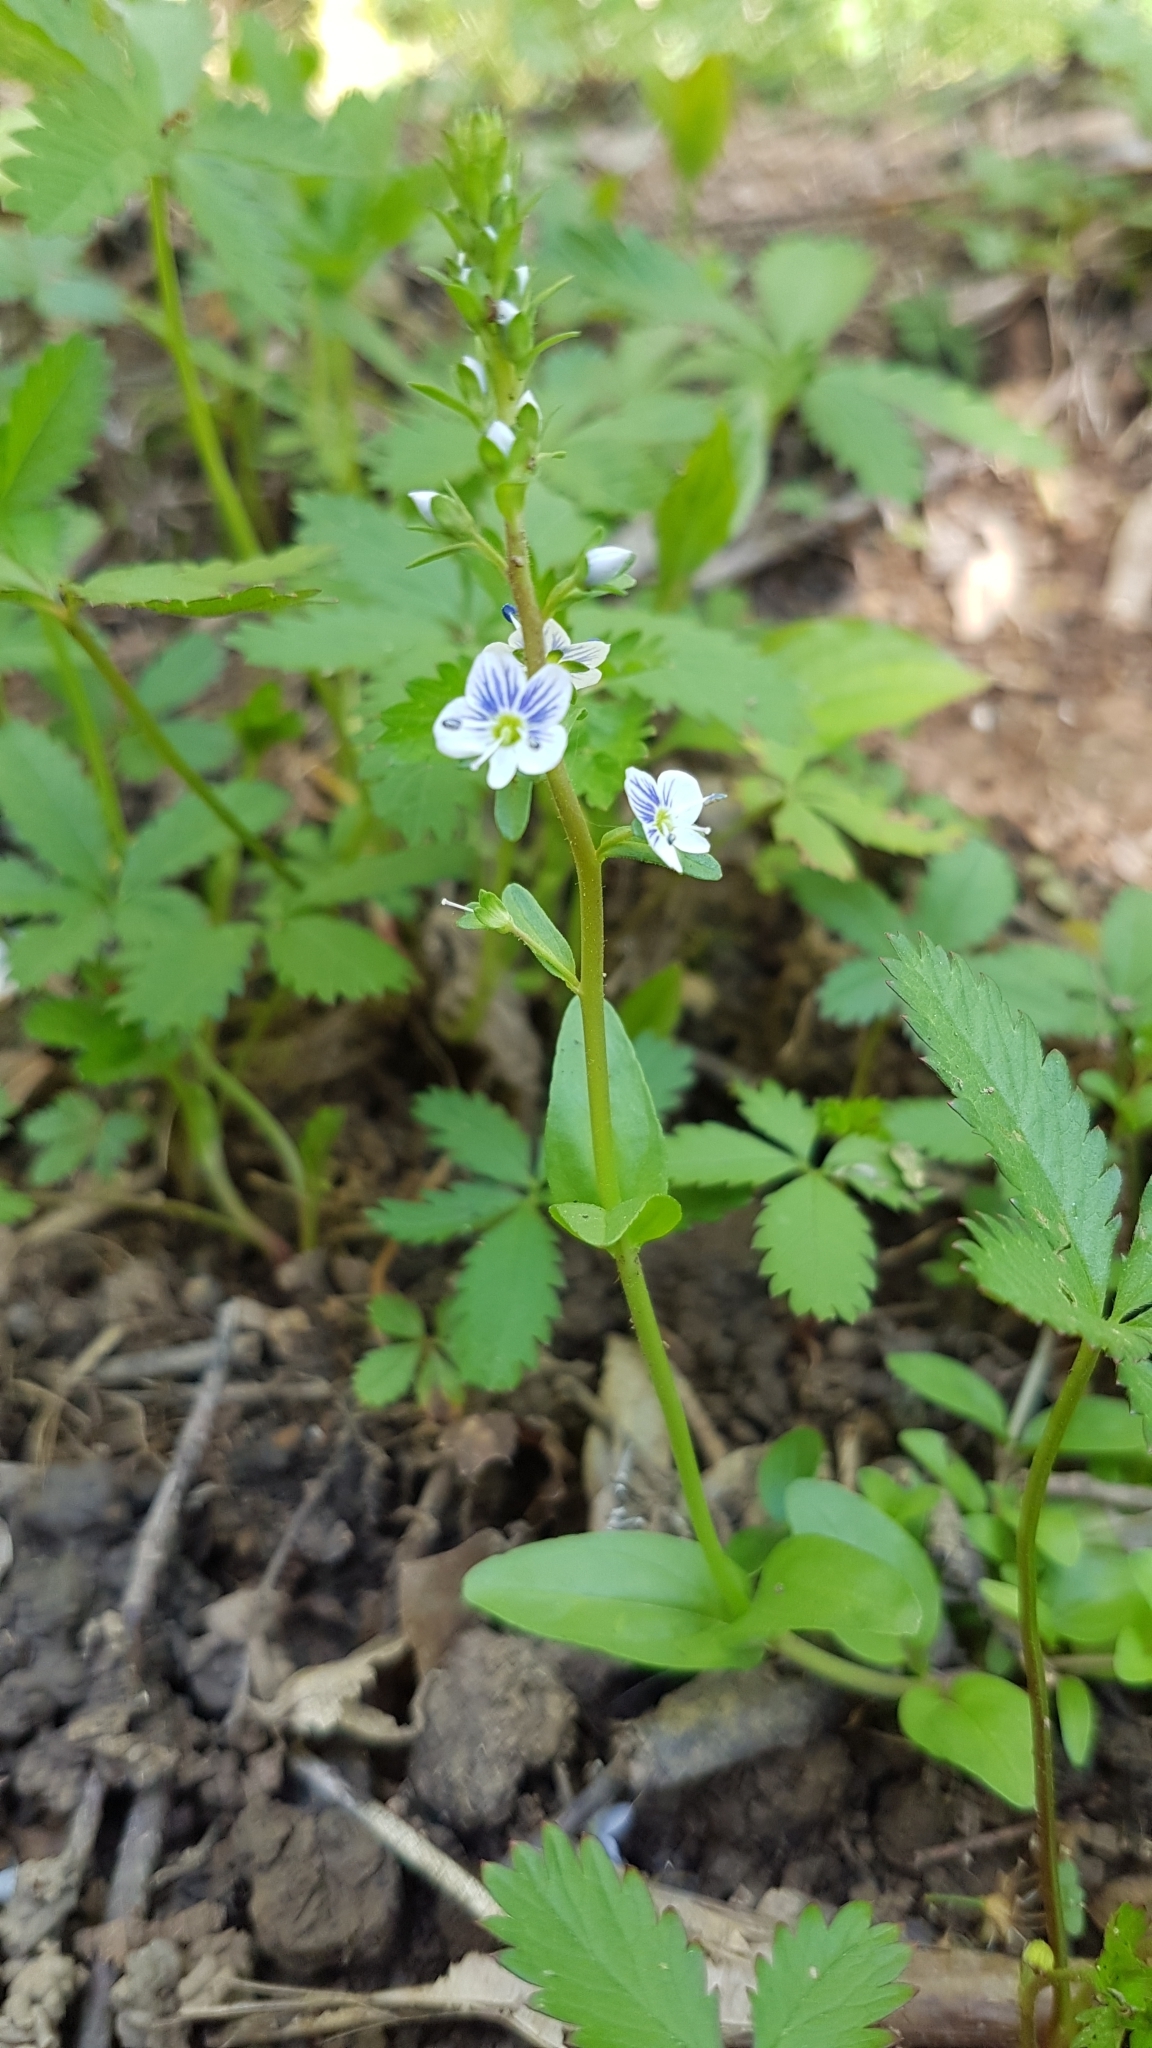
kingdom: Plantae
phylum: Tracheophyta
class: Magnoliopsida
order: Lamiales
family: Plantaginaceae
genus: Veronica
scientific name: Veronica serpyllifolia
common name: Thyme-leaved speedwell
